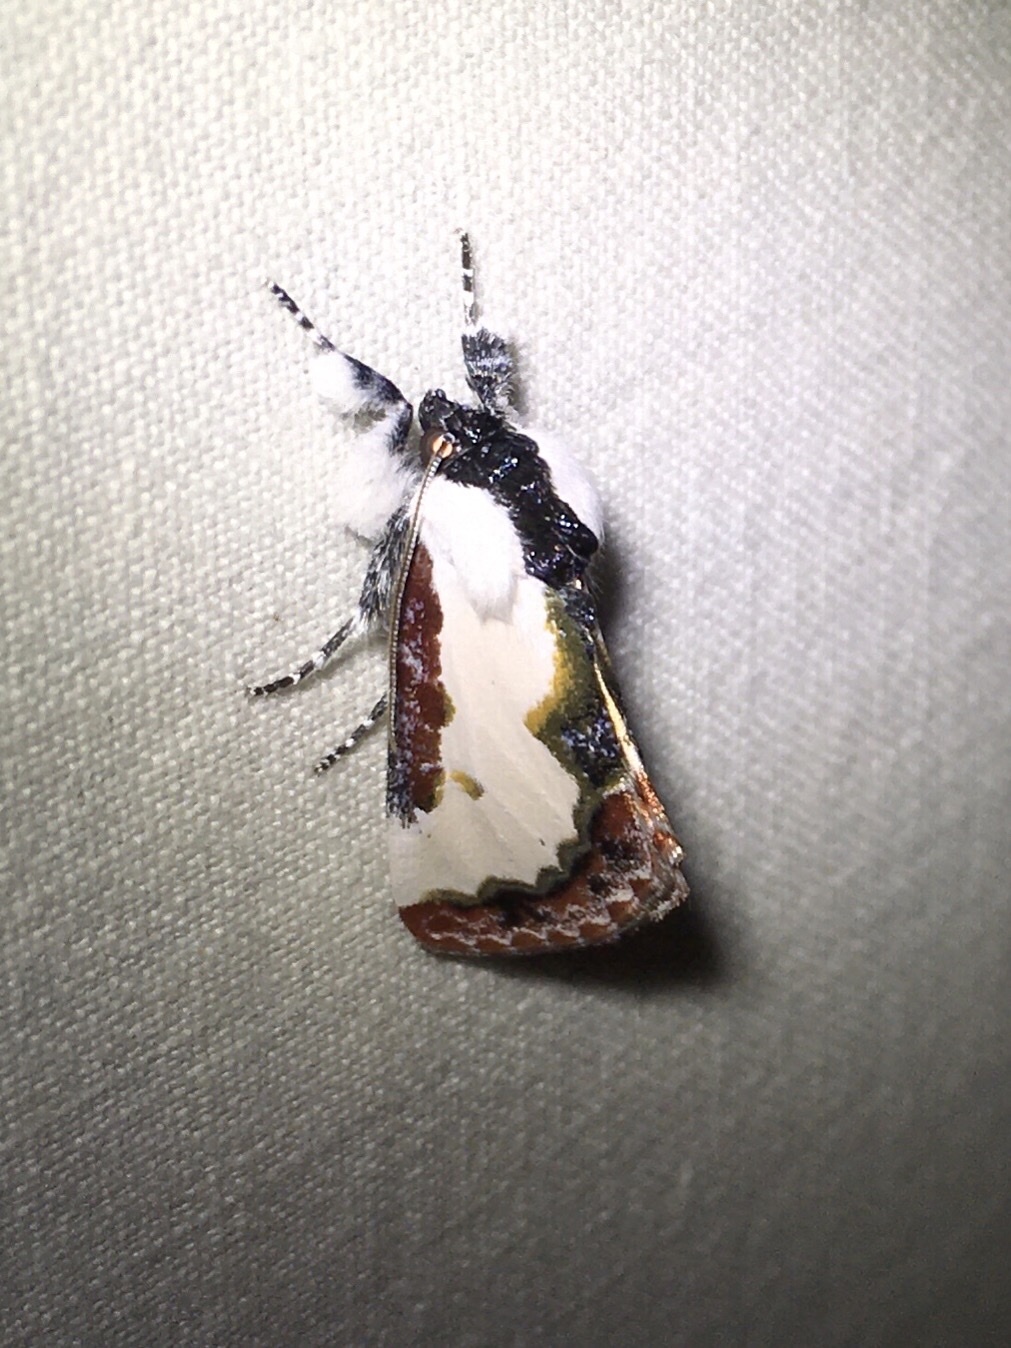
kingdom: Animalia
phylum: Arthropoda
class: Insecta
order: Lepidoptera
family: Noctuidae
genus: Eudryas
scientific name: Eudryas unio
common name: Pearly wood-nymph
